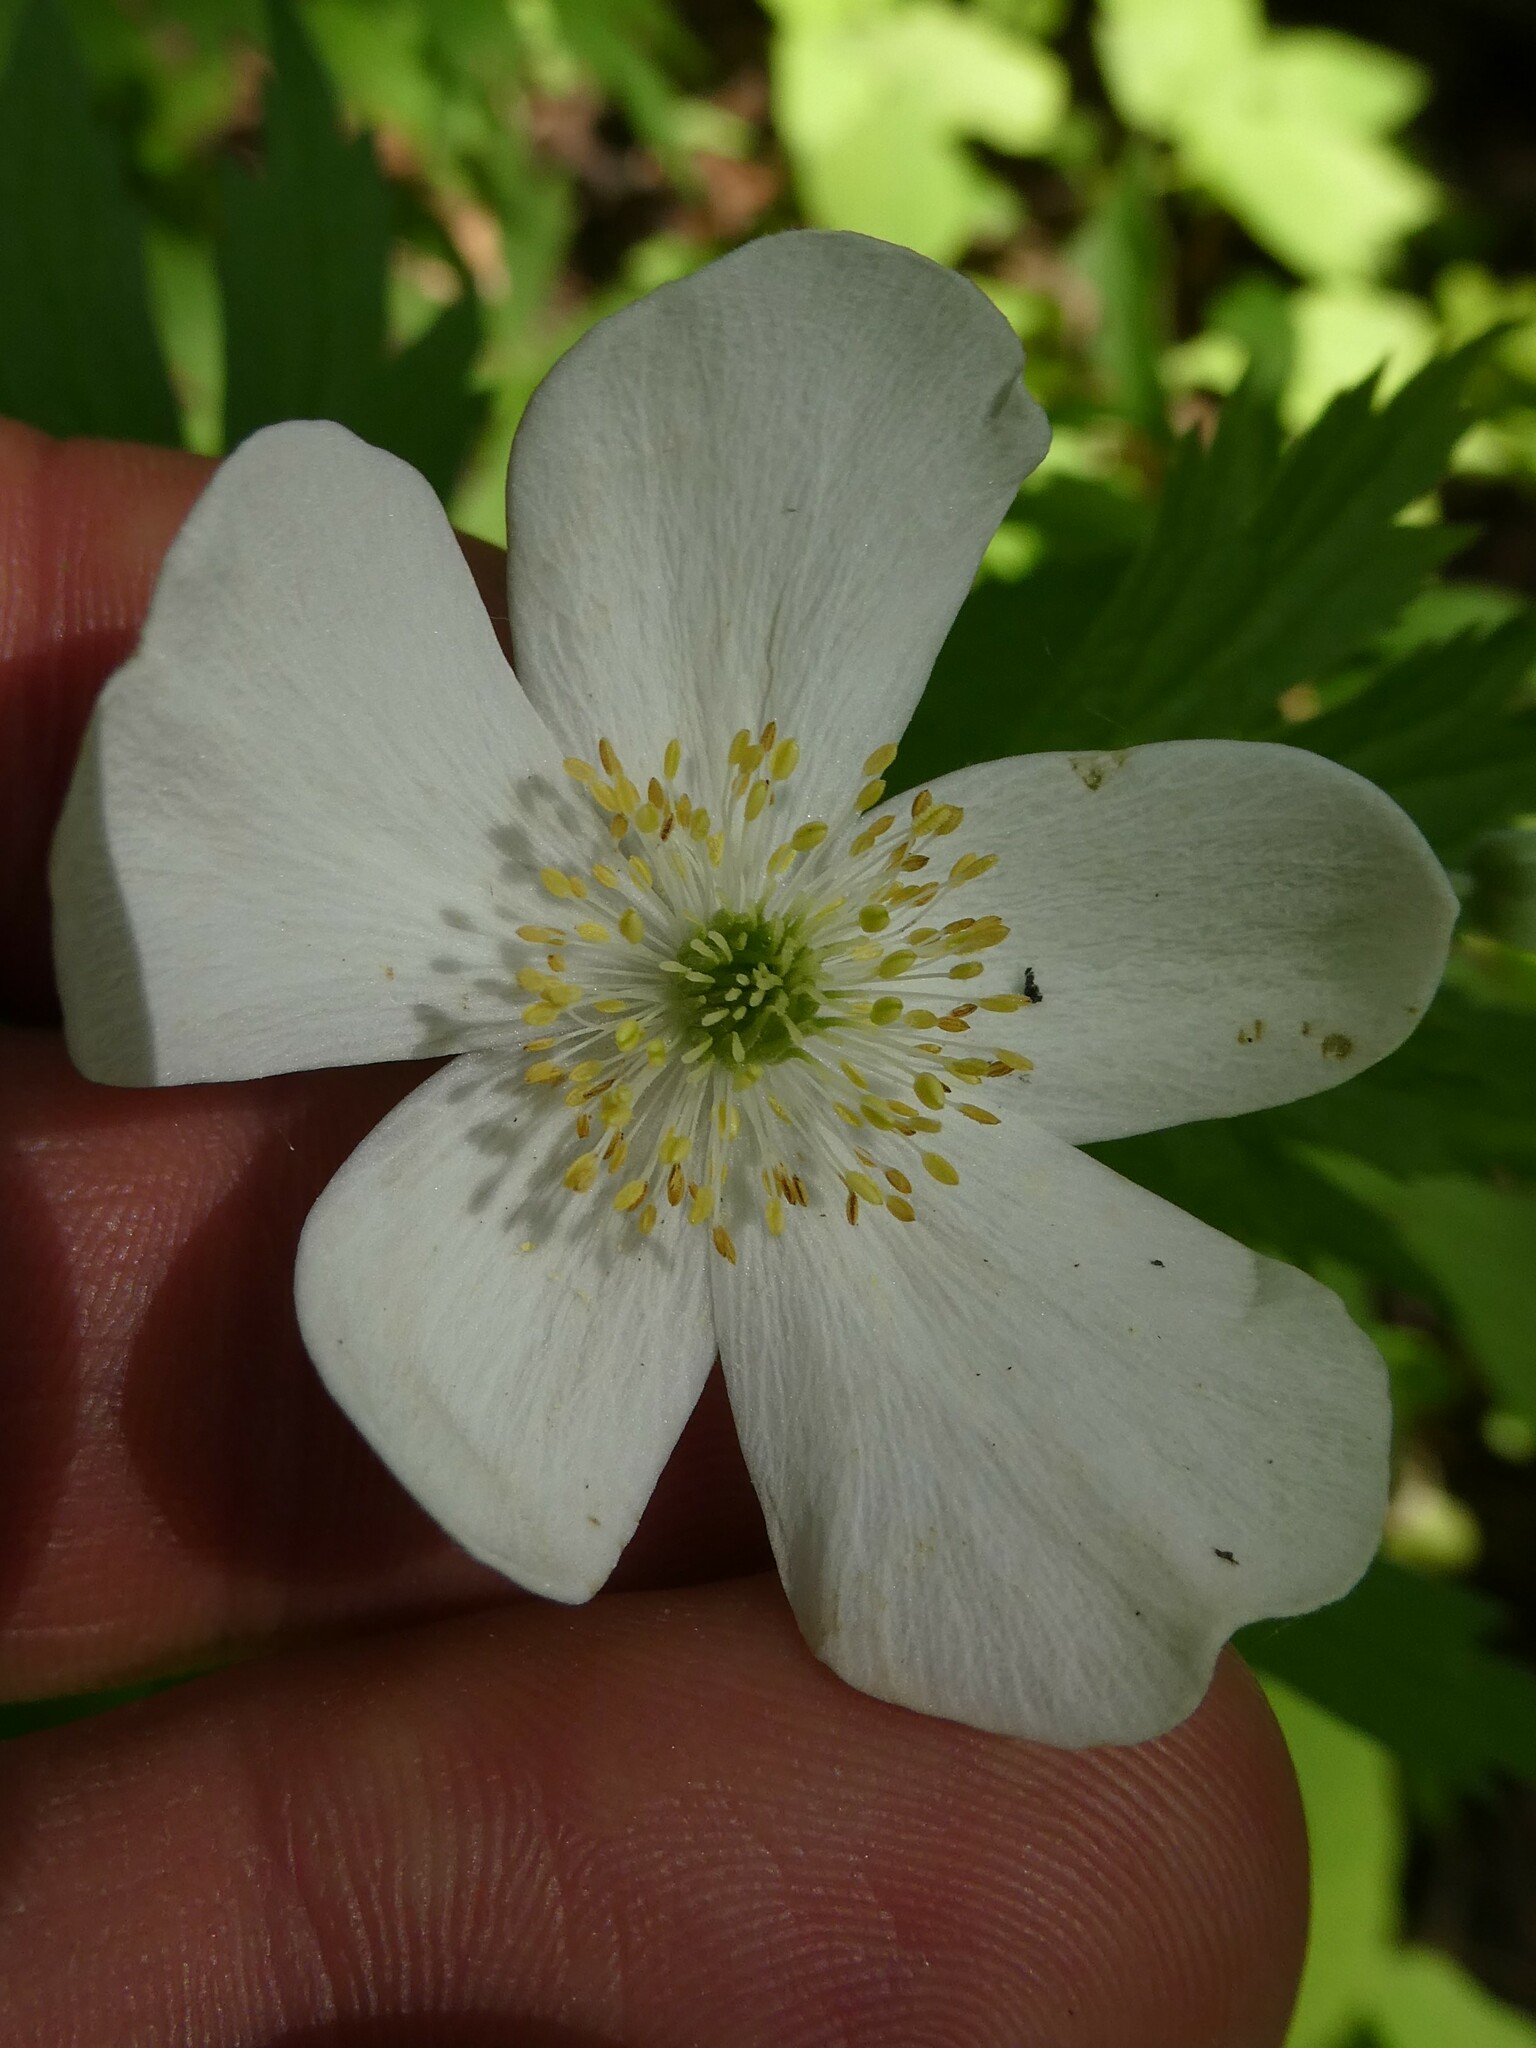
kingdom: Plantae
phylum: Tracheophyta
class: Magnoliopsida
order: Ranunculales
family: Ranunculaceae
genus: Anemonastrum
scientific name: Anemonastrum canadense
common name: Canada anemone
